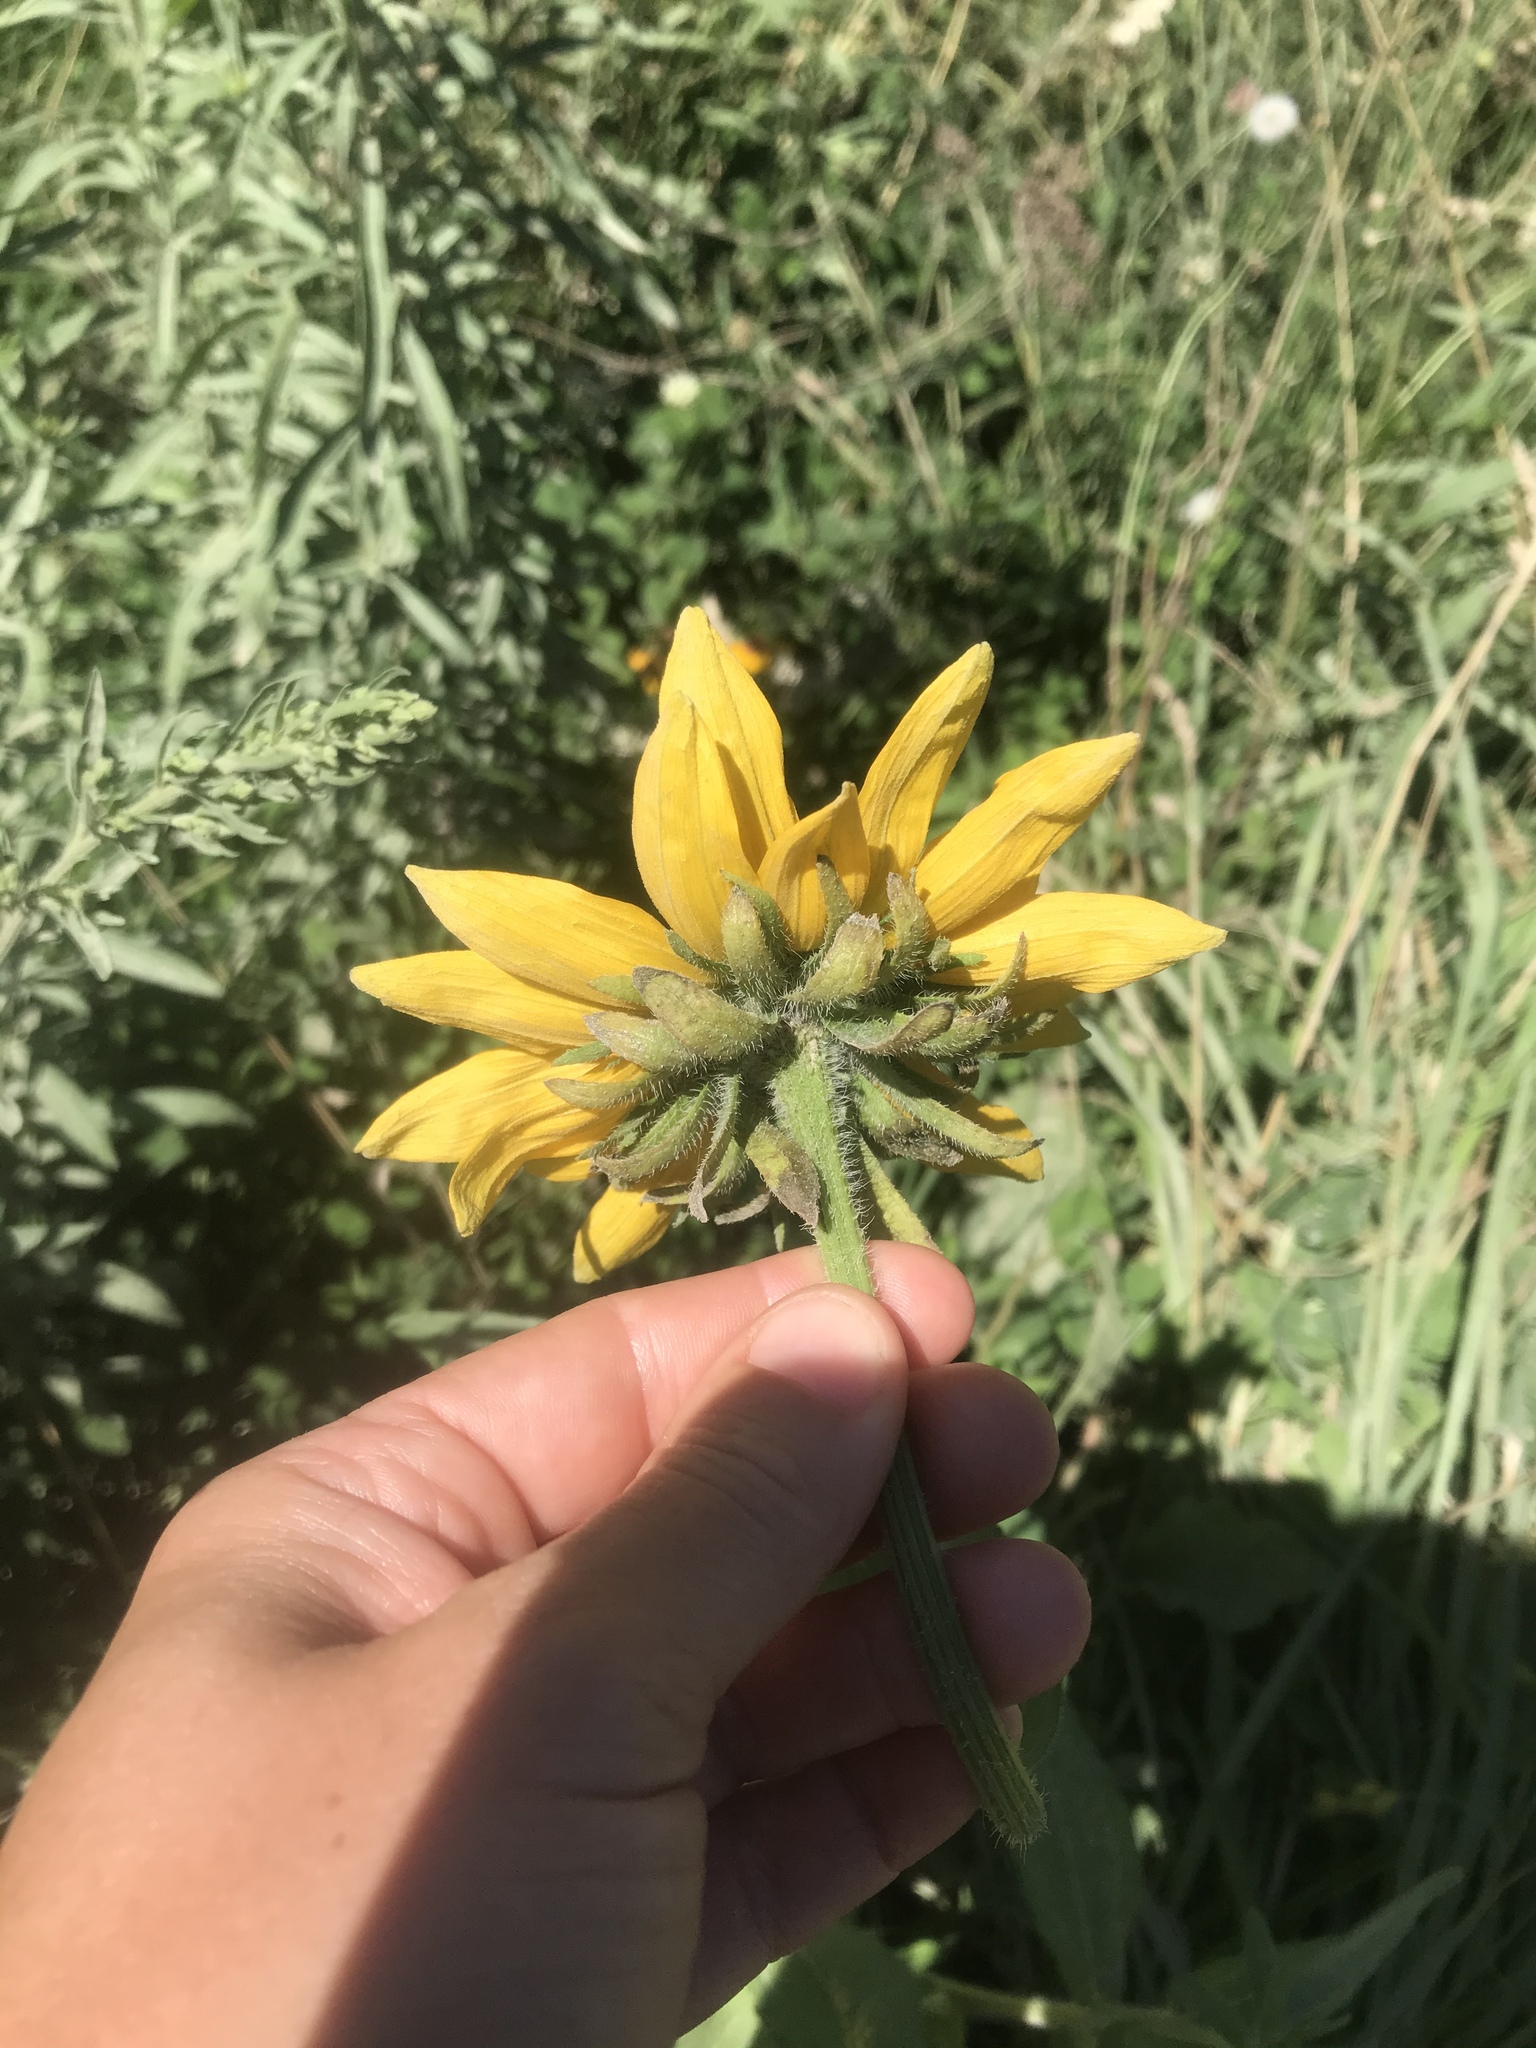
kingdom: Plantae
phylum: Tracheophyta
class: Magnoliopsida
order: Asterales
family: Asteraceae
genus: Rudbeckia
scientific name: Rudbeckia hirta
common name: Black-eyed-susan
